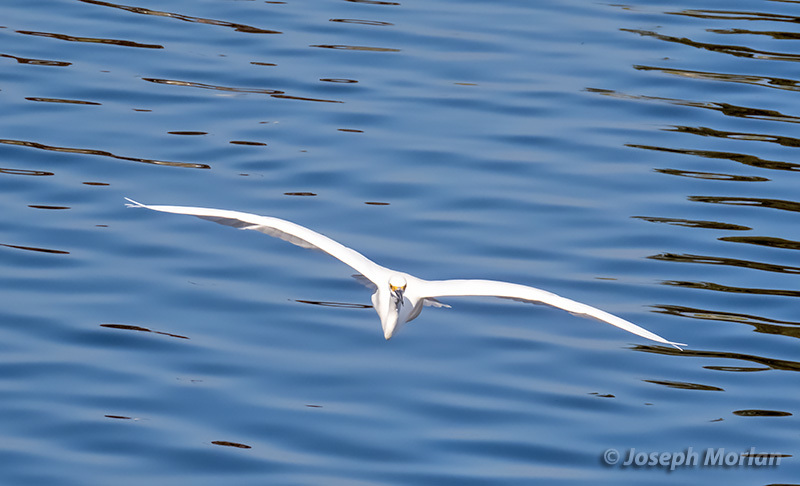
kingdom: Animalia
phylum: Chordata
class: Aves
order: Pelecaniformes
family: Ardeidae
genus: Egretta
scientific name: Egretta thula
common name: Snowy egret
